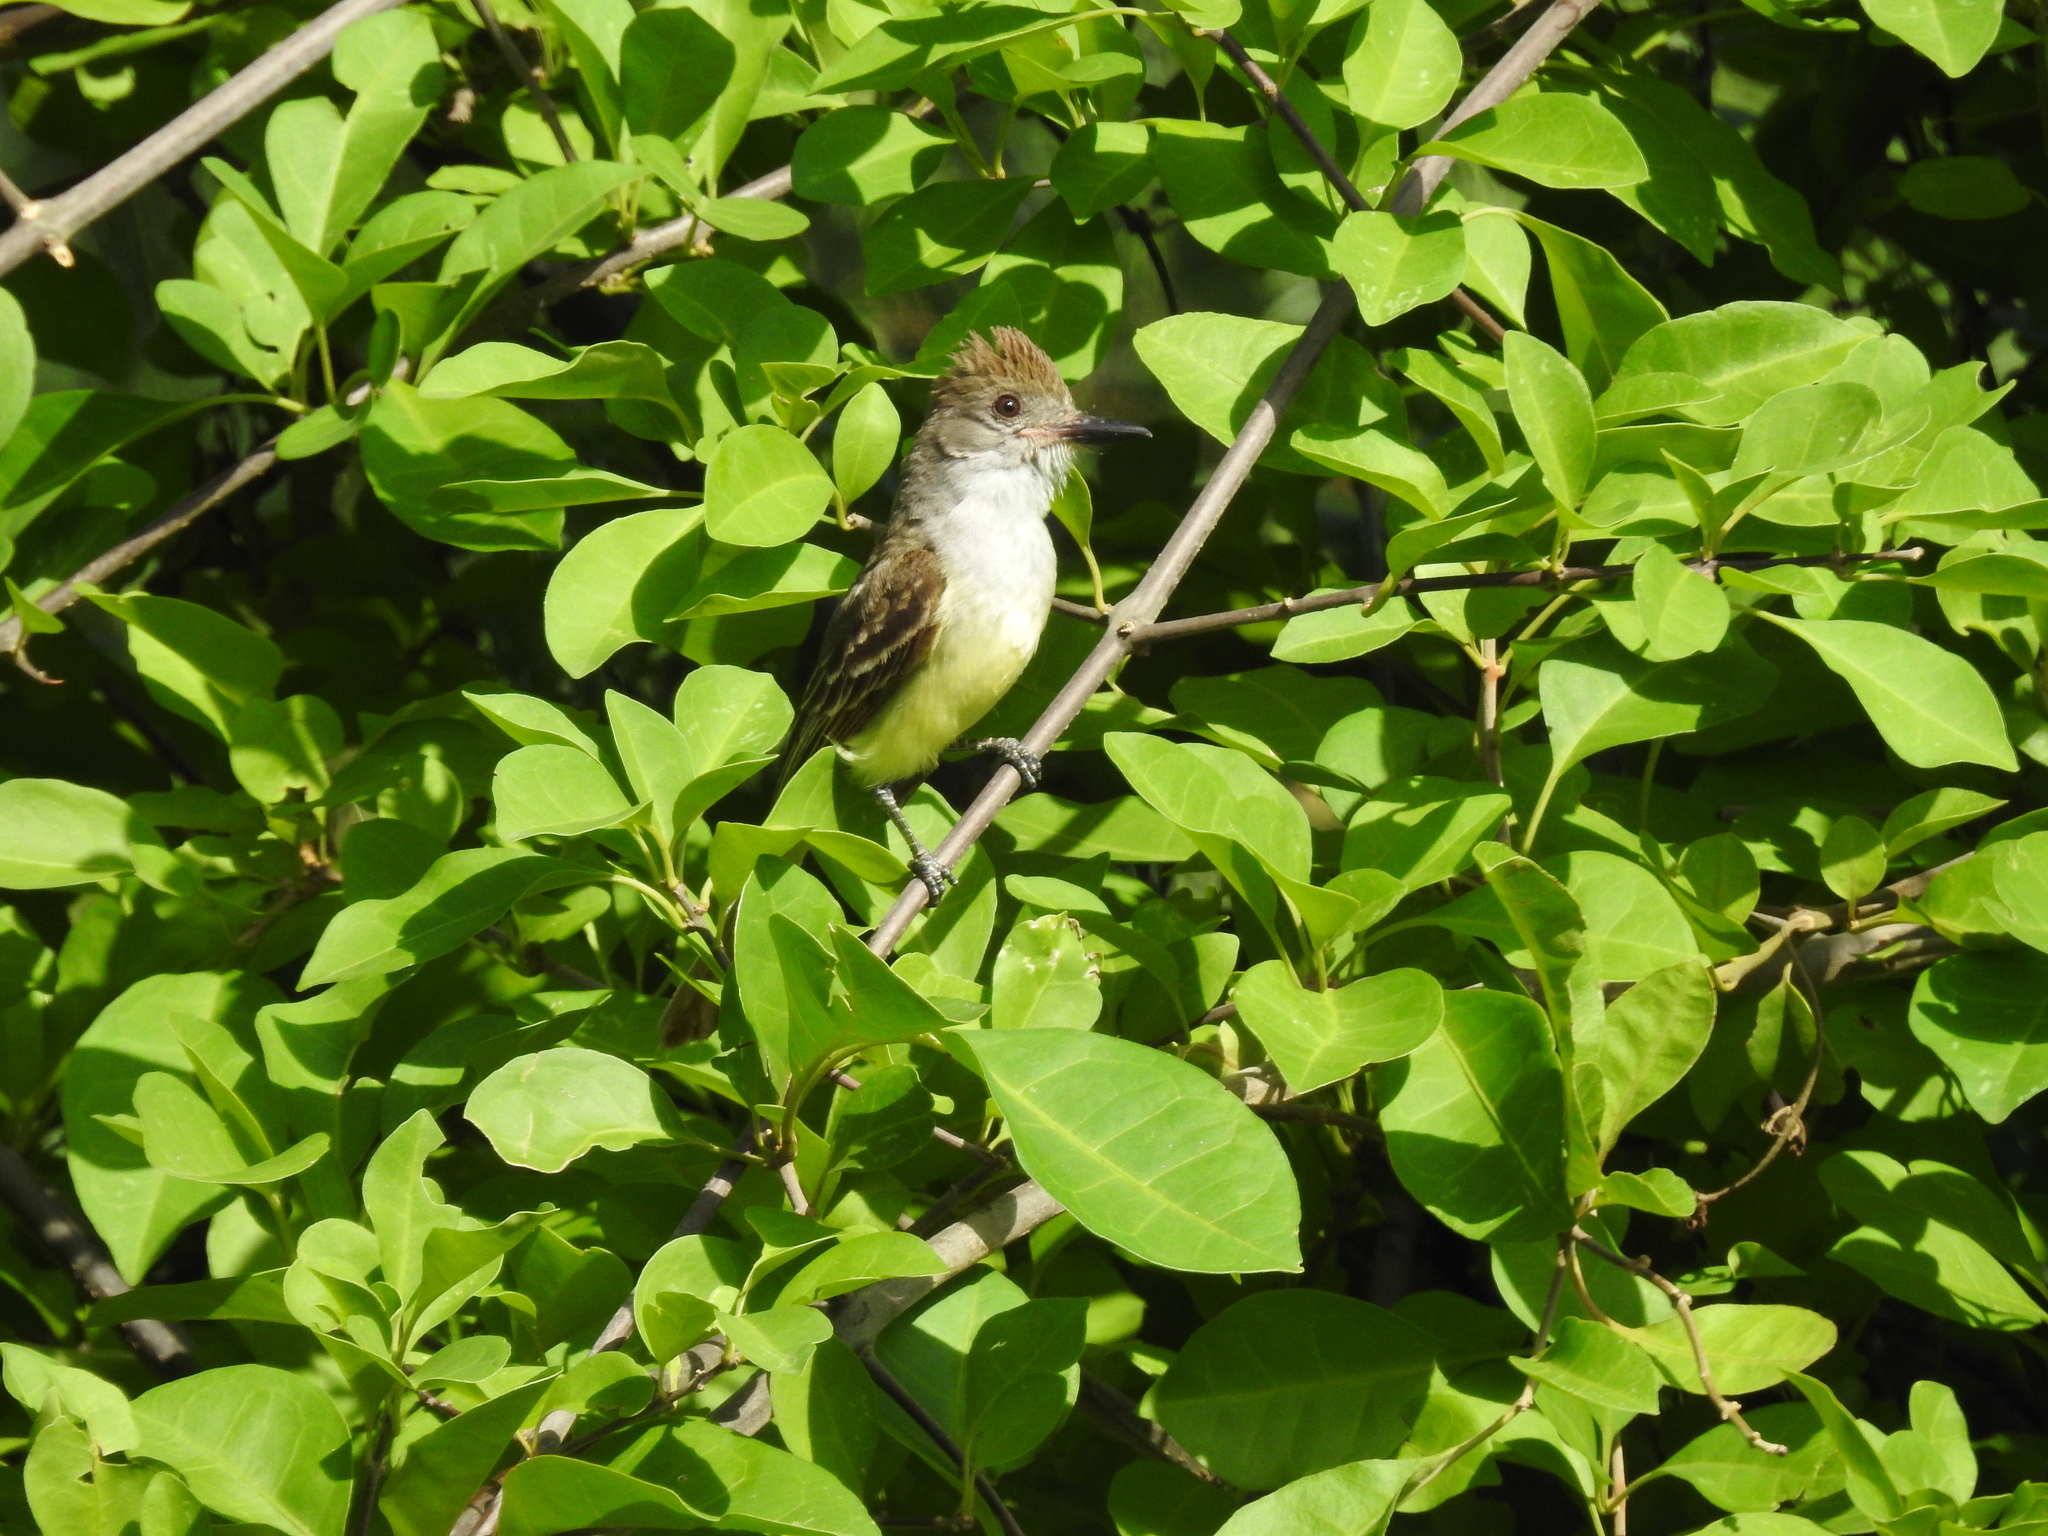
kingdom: Animalia
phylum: Chordata
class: Aves
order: Passeriformes
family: Tyrannidae
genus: Myiarchus
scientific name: Myiarchus tyrannulus
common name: Brown-crested flycatcher
